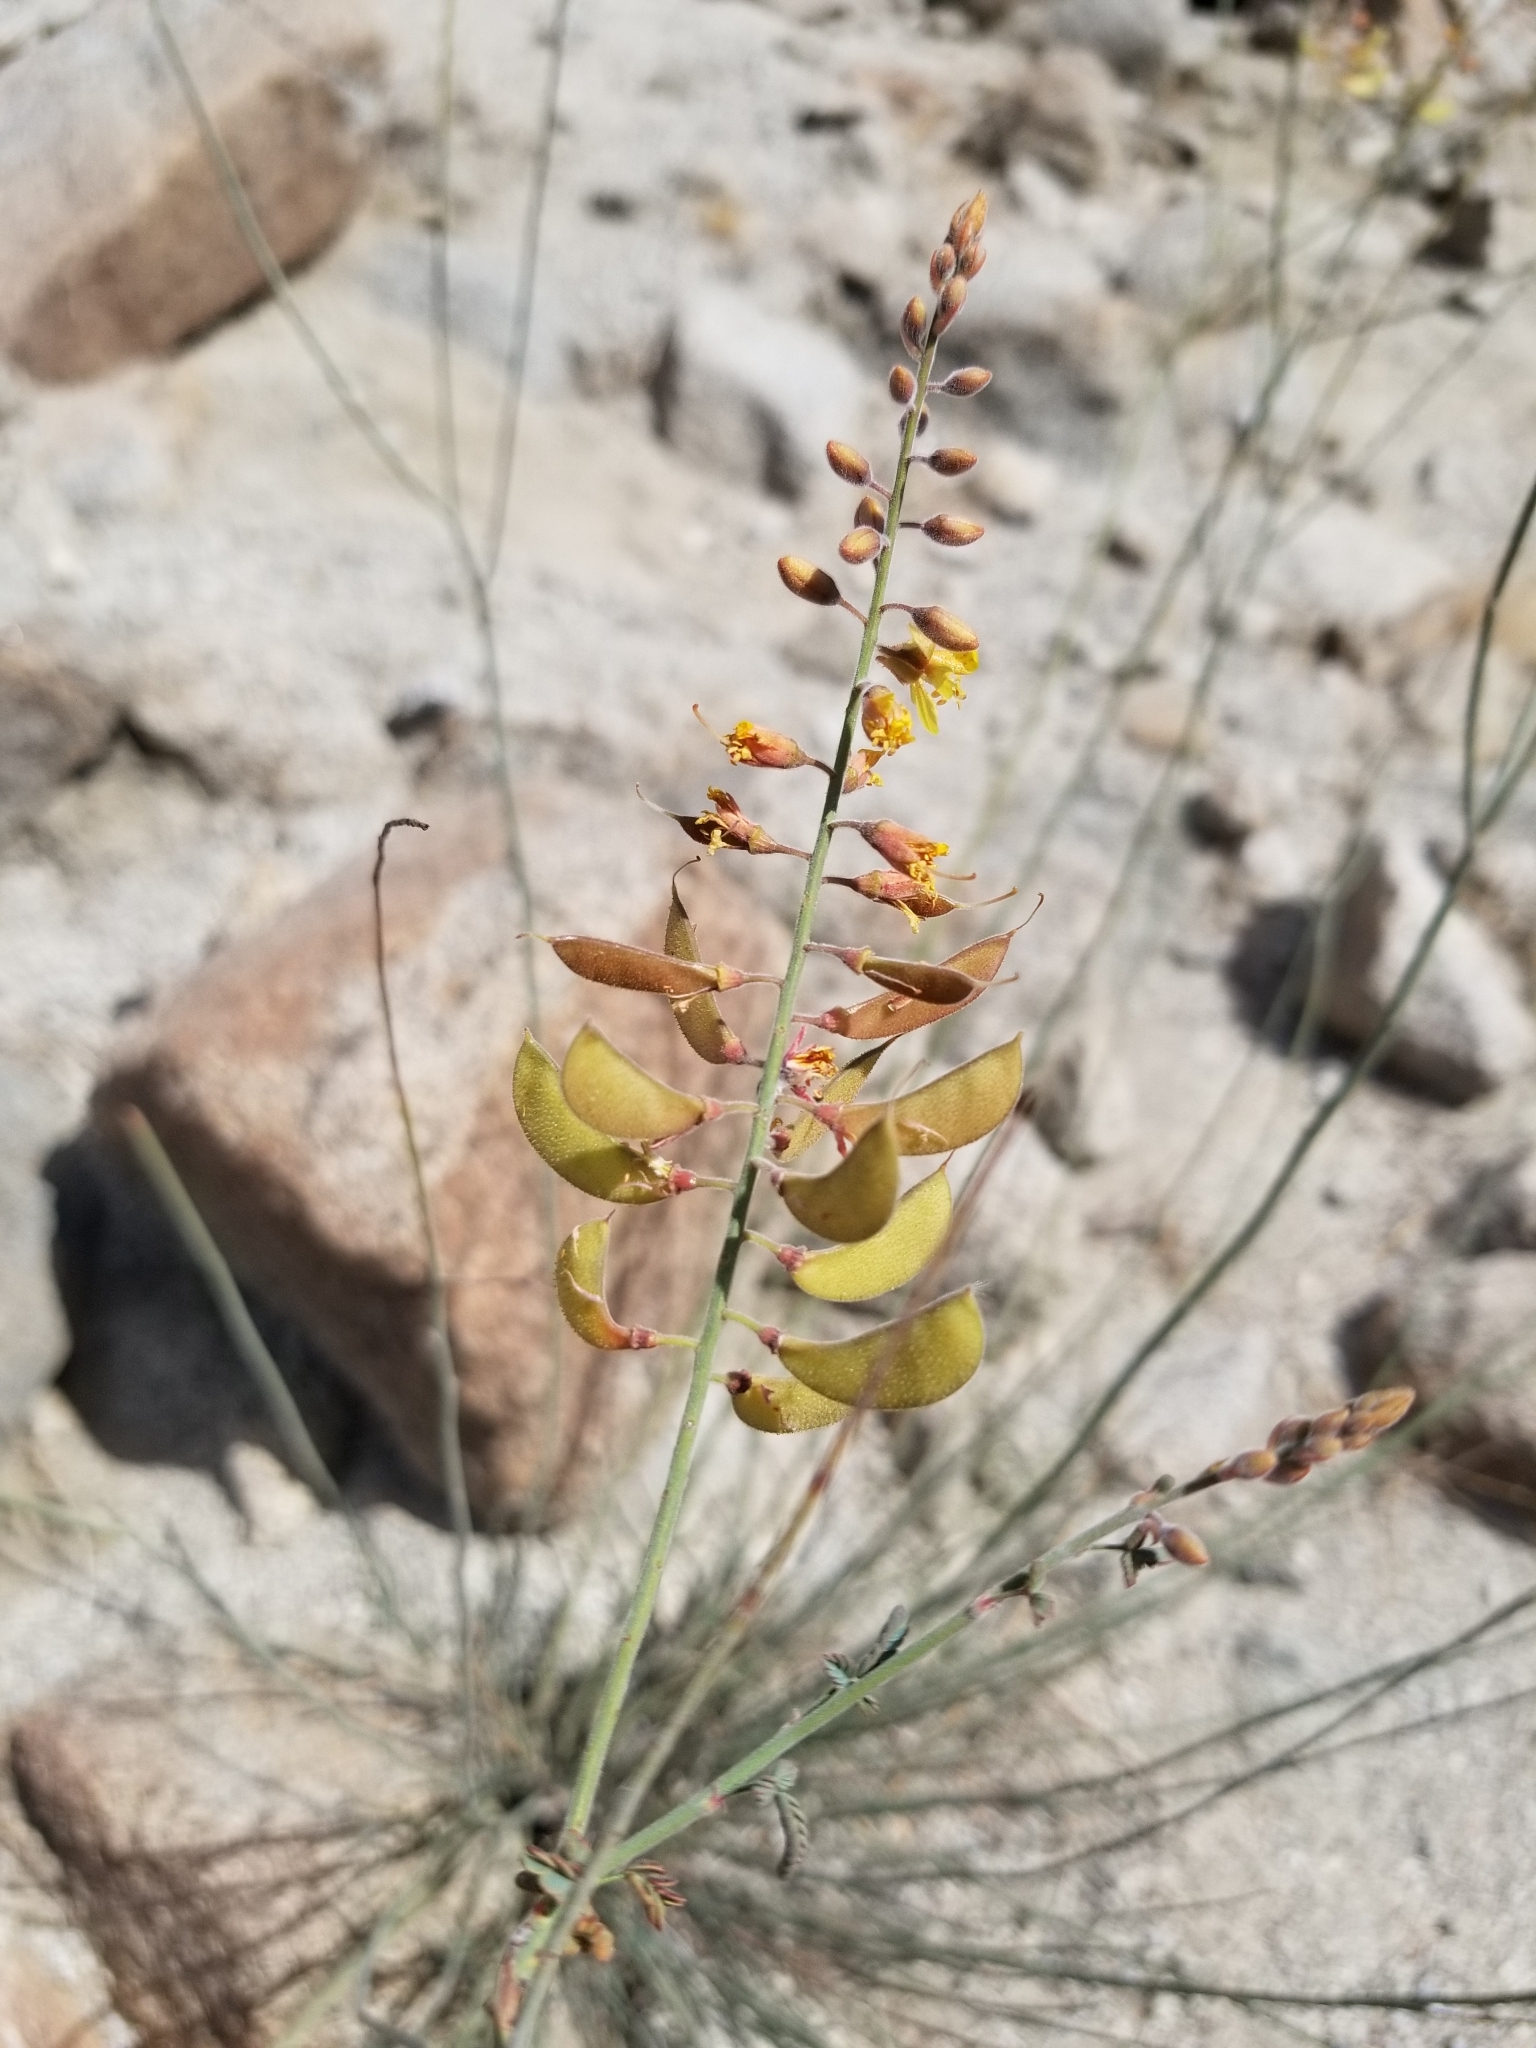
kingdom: Plantae
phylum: Tracheophyta
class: Magnoliopsida
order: Fabales
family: Fabaceae
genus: Hoffmannseggia
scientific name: Hoffmannseggia microphylla
